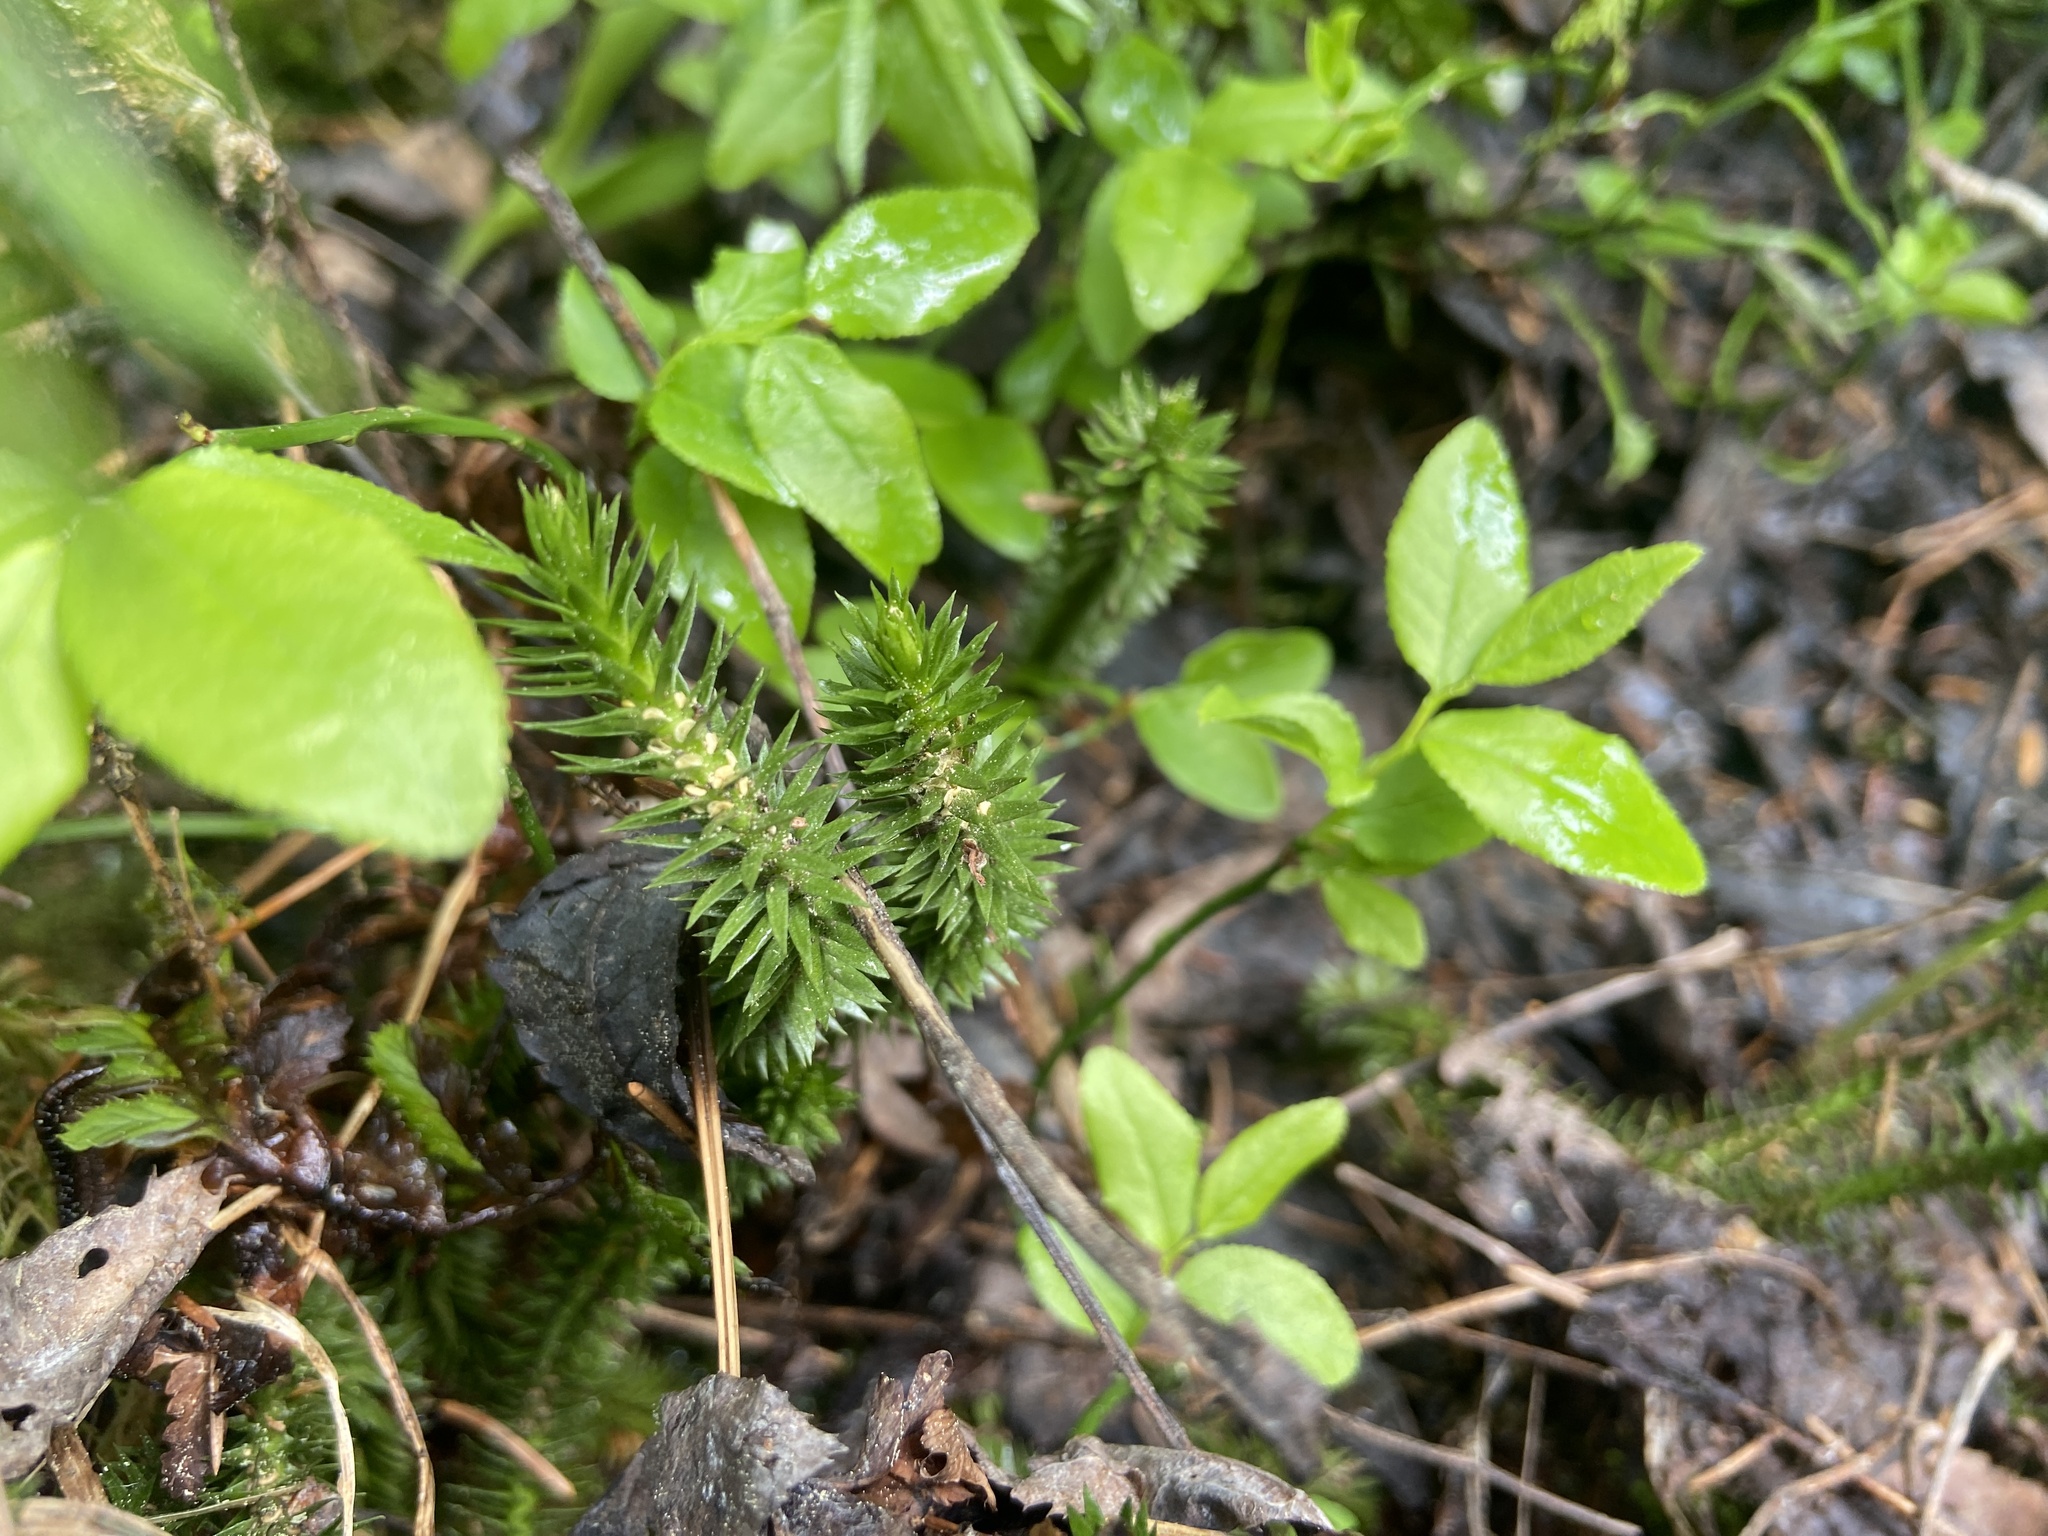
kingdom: Plantae
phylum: Tracheophyta
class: Lycopodiopsida
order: Lycopodiales
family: Lycopodiaceae
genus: Huperzia
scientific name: Huperzia selago
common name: Northern firmoss
